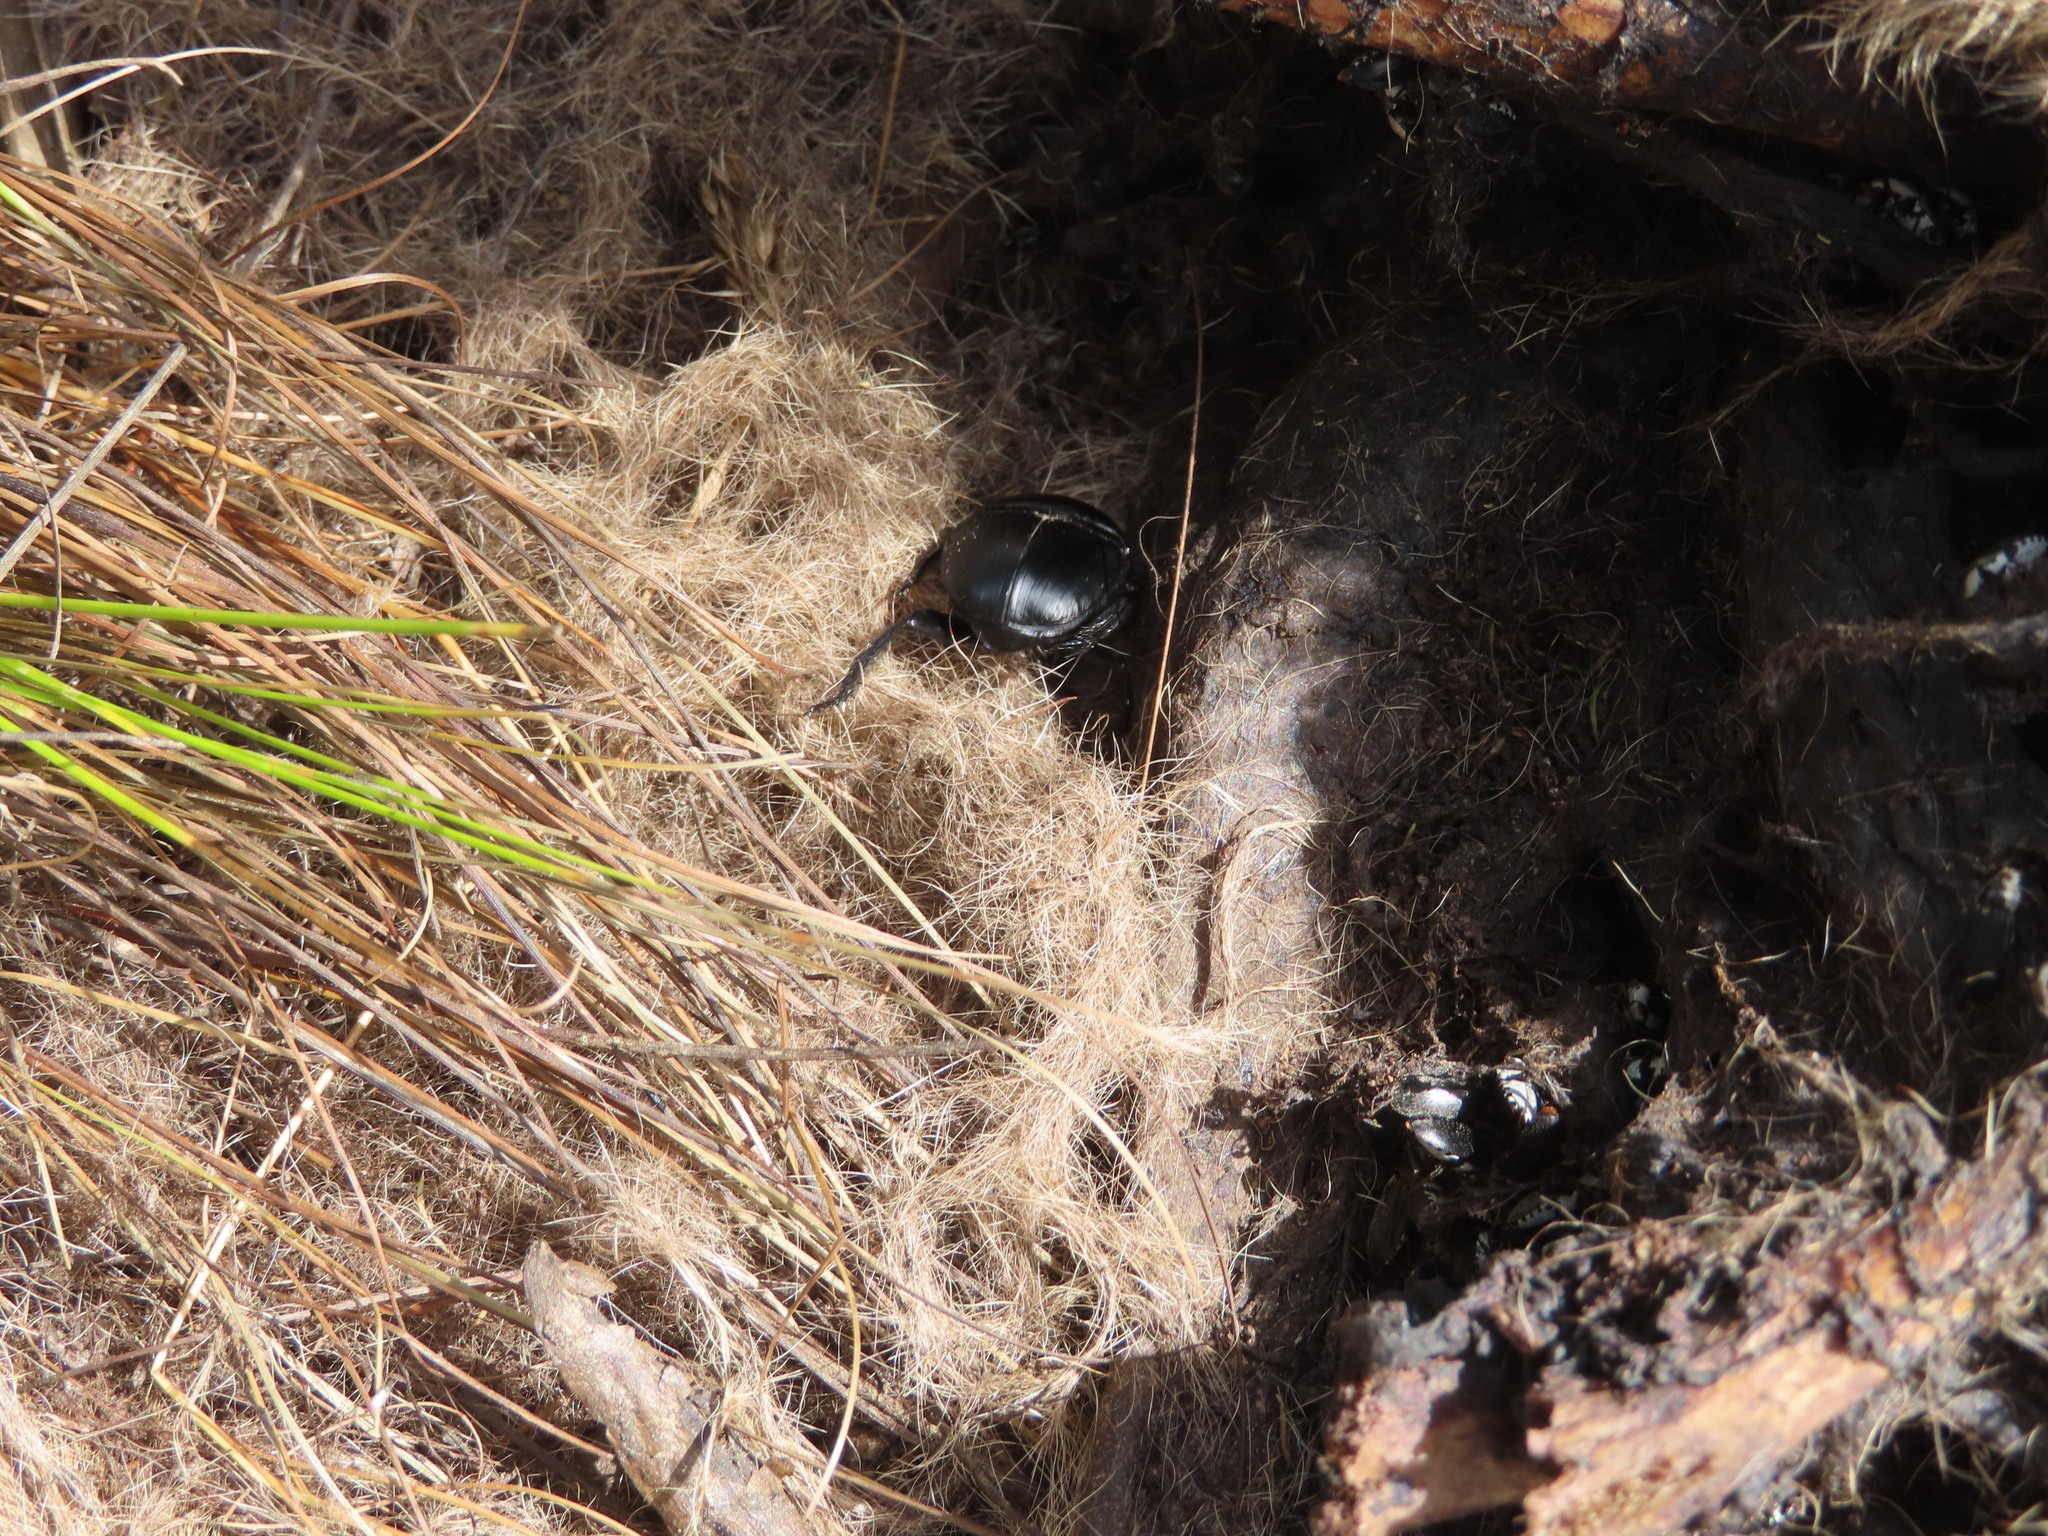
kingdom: Animalia
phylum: Arthropoda
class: Insecta
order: Coleoptera
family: Scarabaeidae
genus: Scarabaeus
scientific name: Scarabaeus convexus
